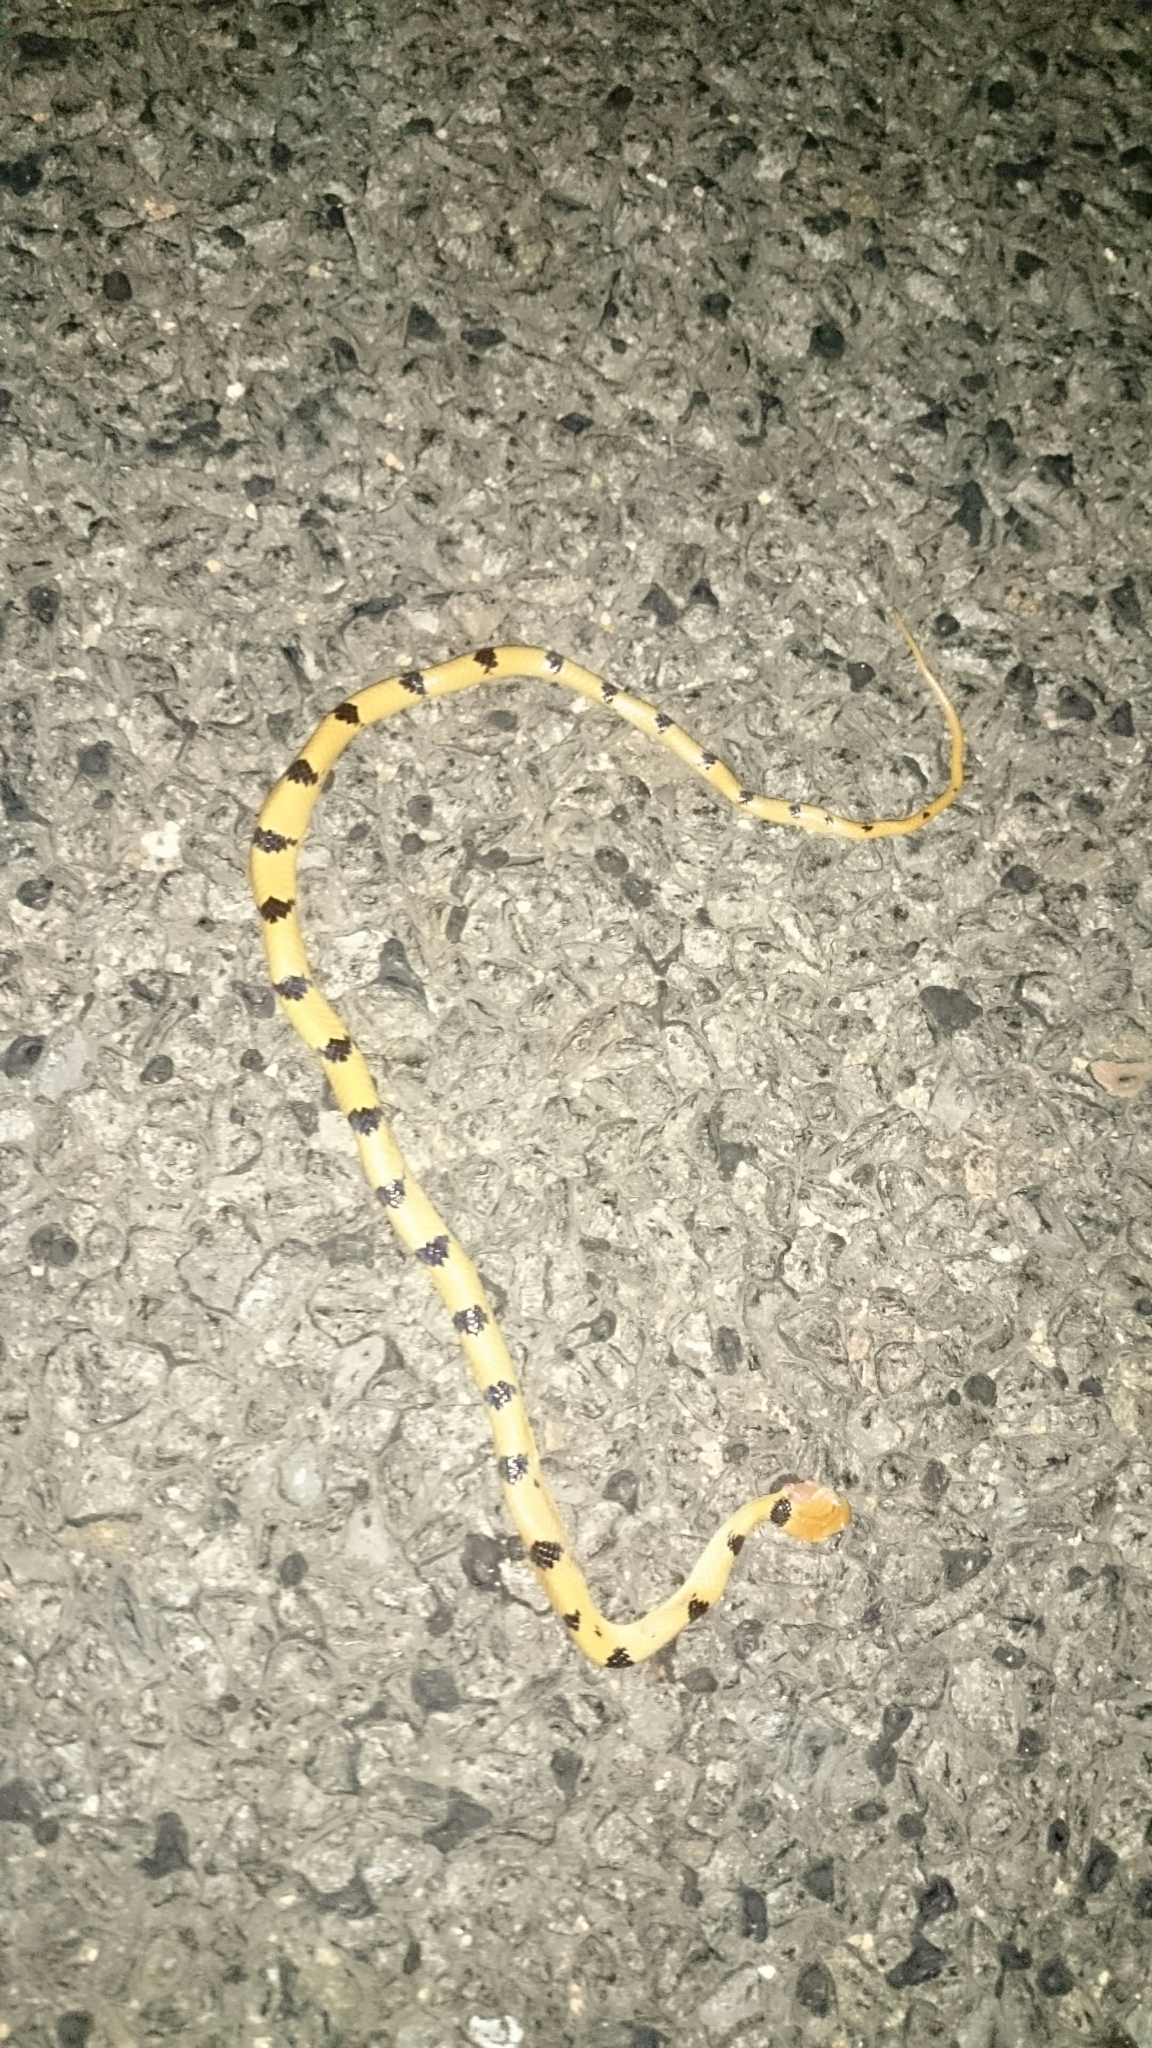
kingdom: Animalia
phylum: Chordata
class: Squamata
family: Colubridae
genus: Telescopus
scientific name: Telescopus semiannulatus
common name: Common tiger snake
